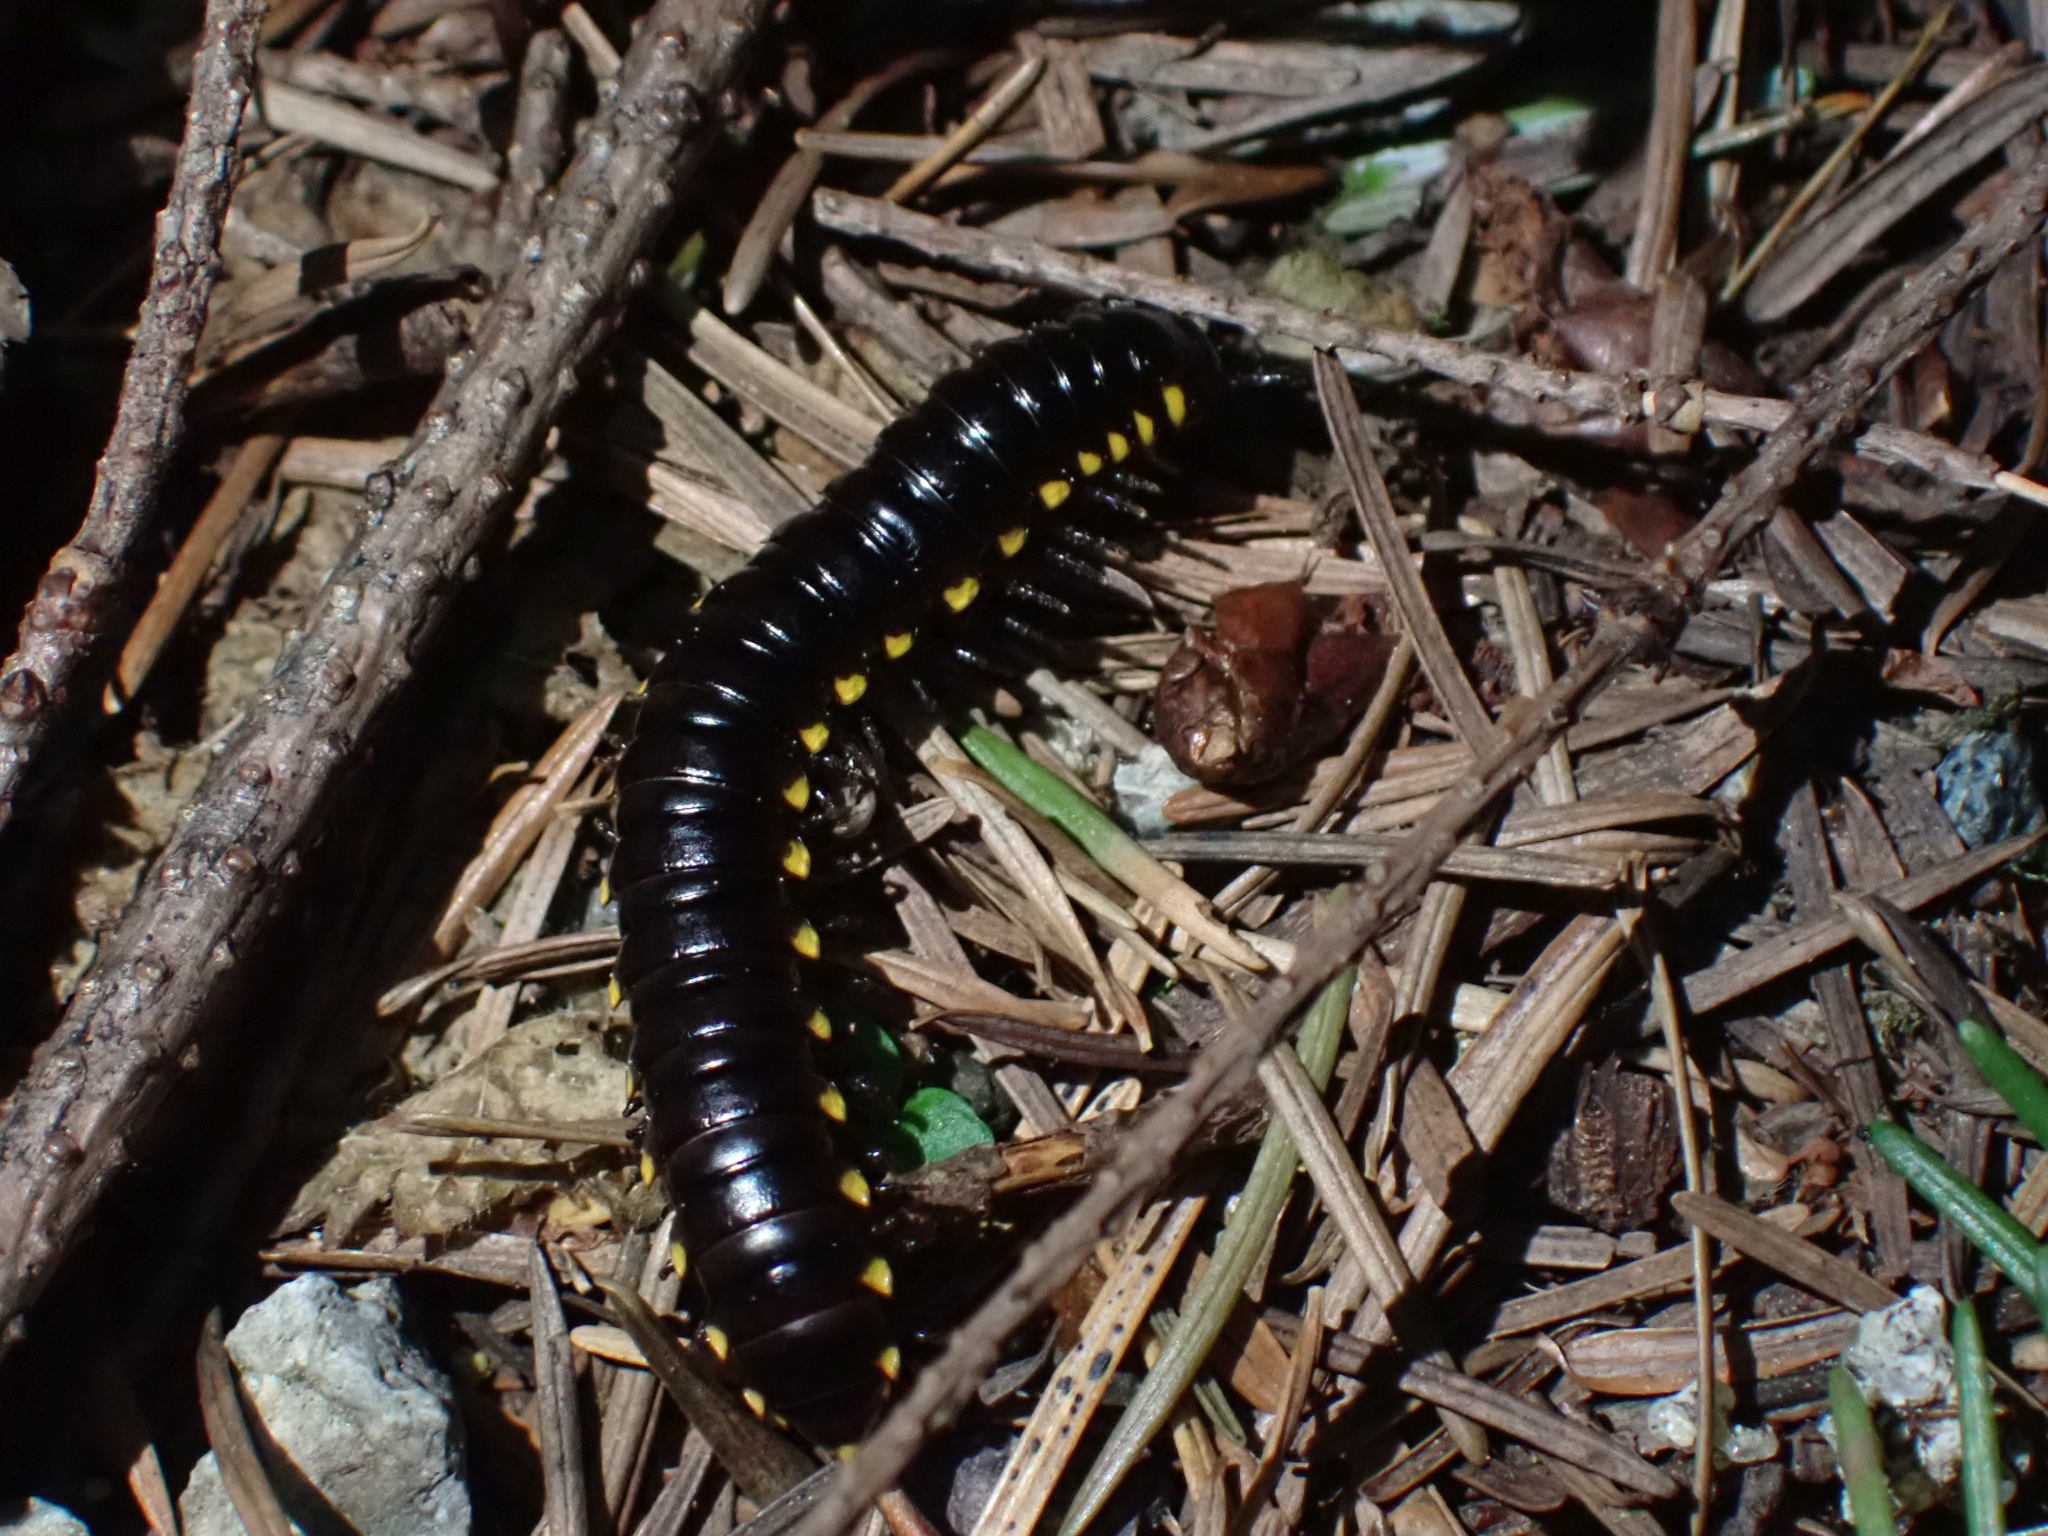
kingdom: Animalia
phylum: Arthropoda
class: Diplopoda
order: Polydesmida
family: Xystodesmidae
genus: Harpaphe
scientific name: Harpaphe haydeniana
